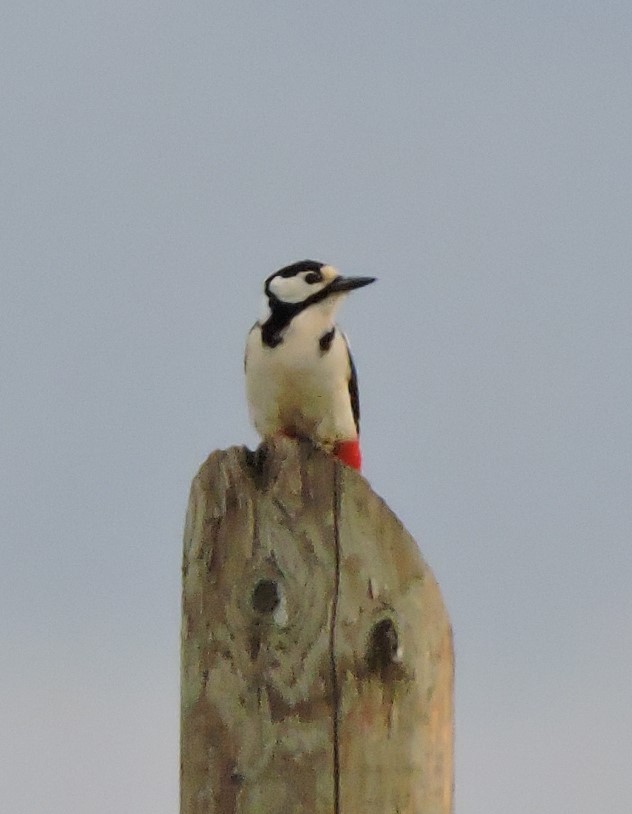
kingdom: Animalia
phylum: Chordata
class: Aves
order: Piciformes
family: Picidae
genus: Dendrocopos
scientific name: Dendrocopos major
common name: Great spotted woodpecker
